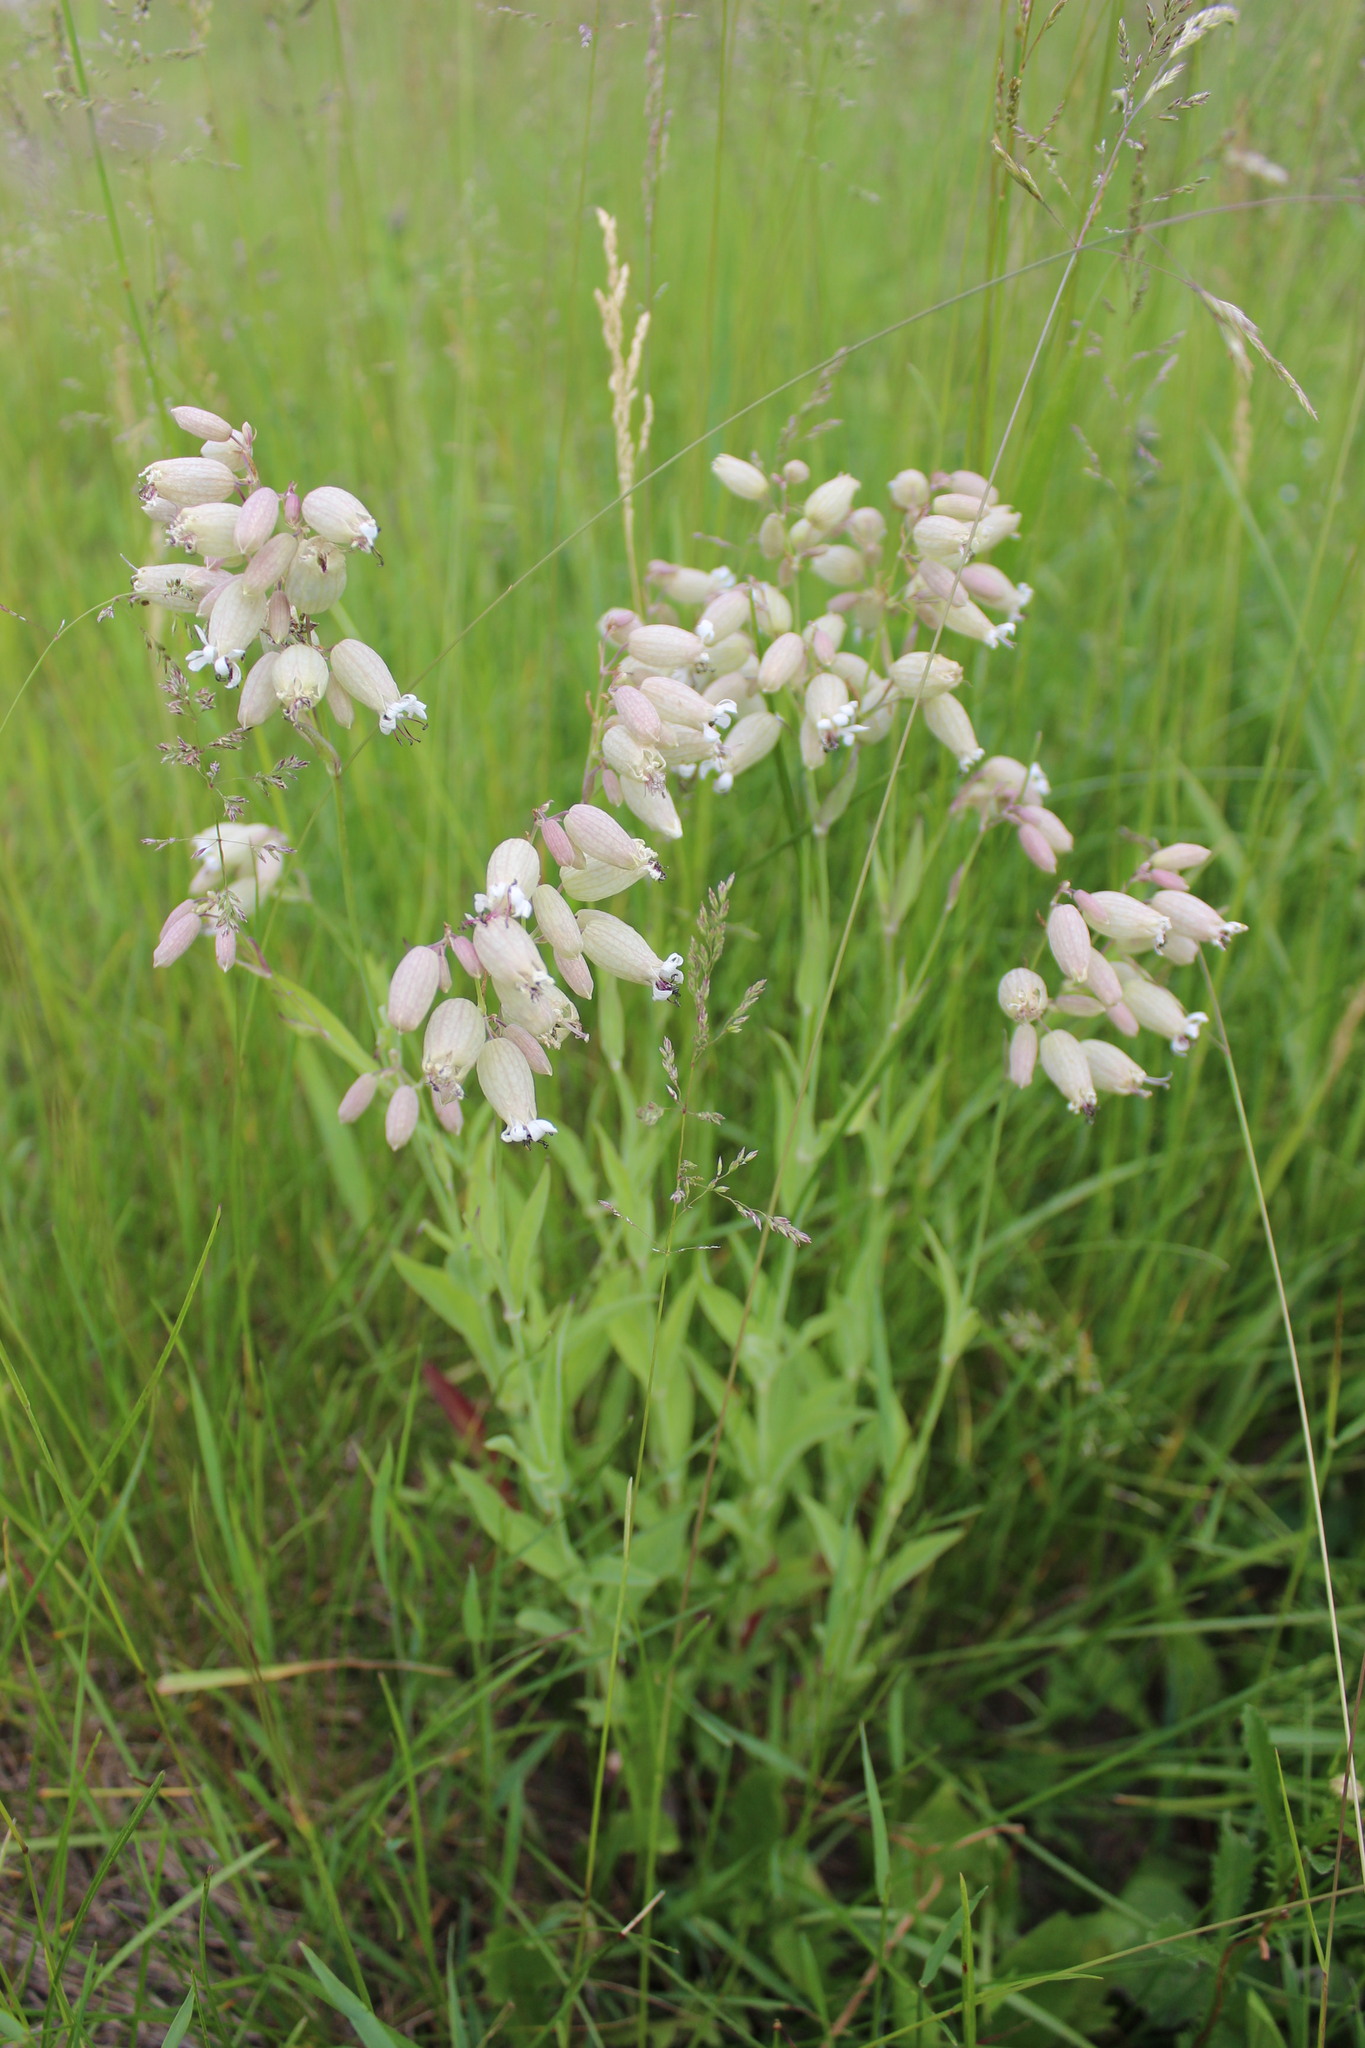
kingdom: Plantae
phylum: Tracheophyta
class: Magnoliopsida
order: Caryophyllales
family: Caryophyllaceae
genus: Silene
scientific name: Silene vulgaris
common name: Bladder campion
